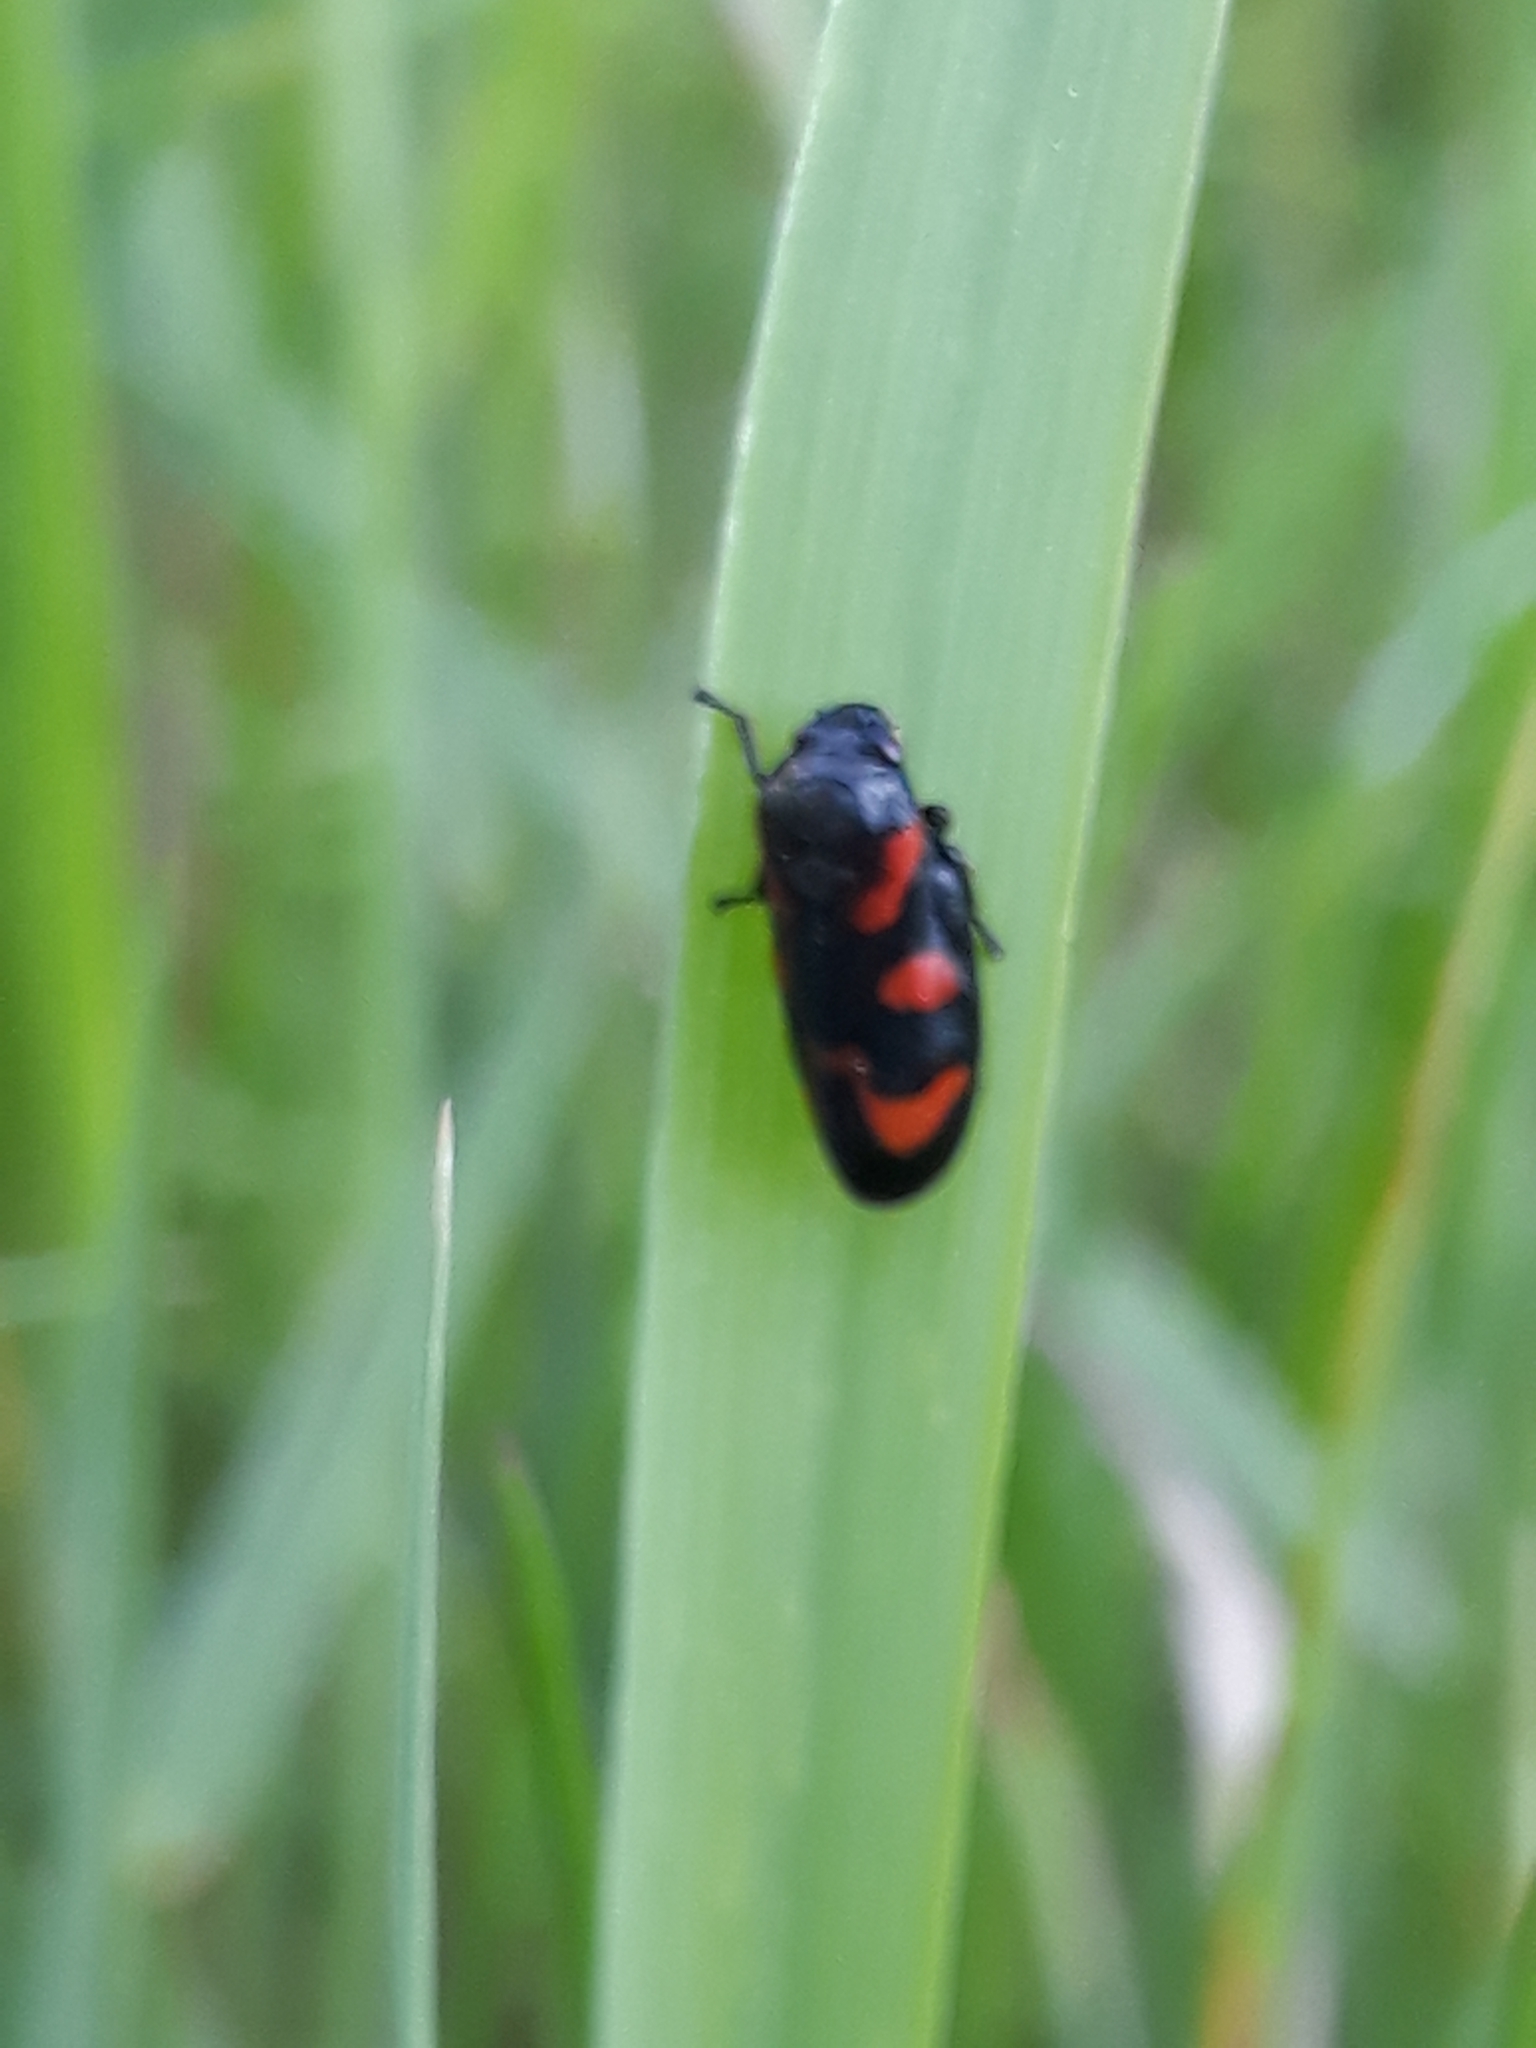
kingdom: Animalia
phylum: Arthropoda
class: Insecta
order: Hemiptera
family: Cercopidae
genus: Cercopis
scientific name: Cercopis vulnerata
